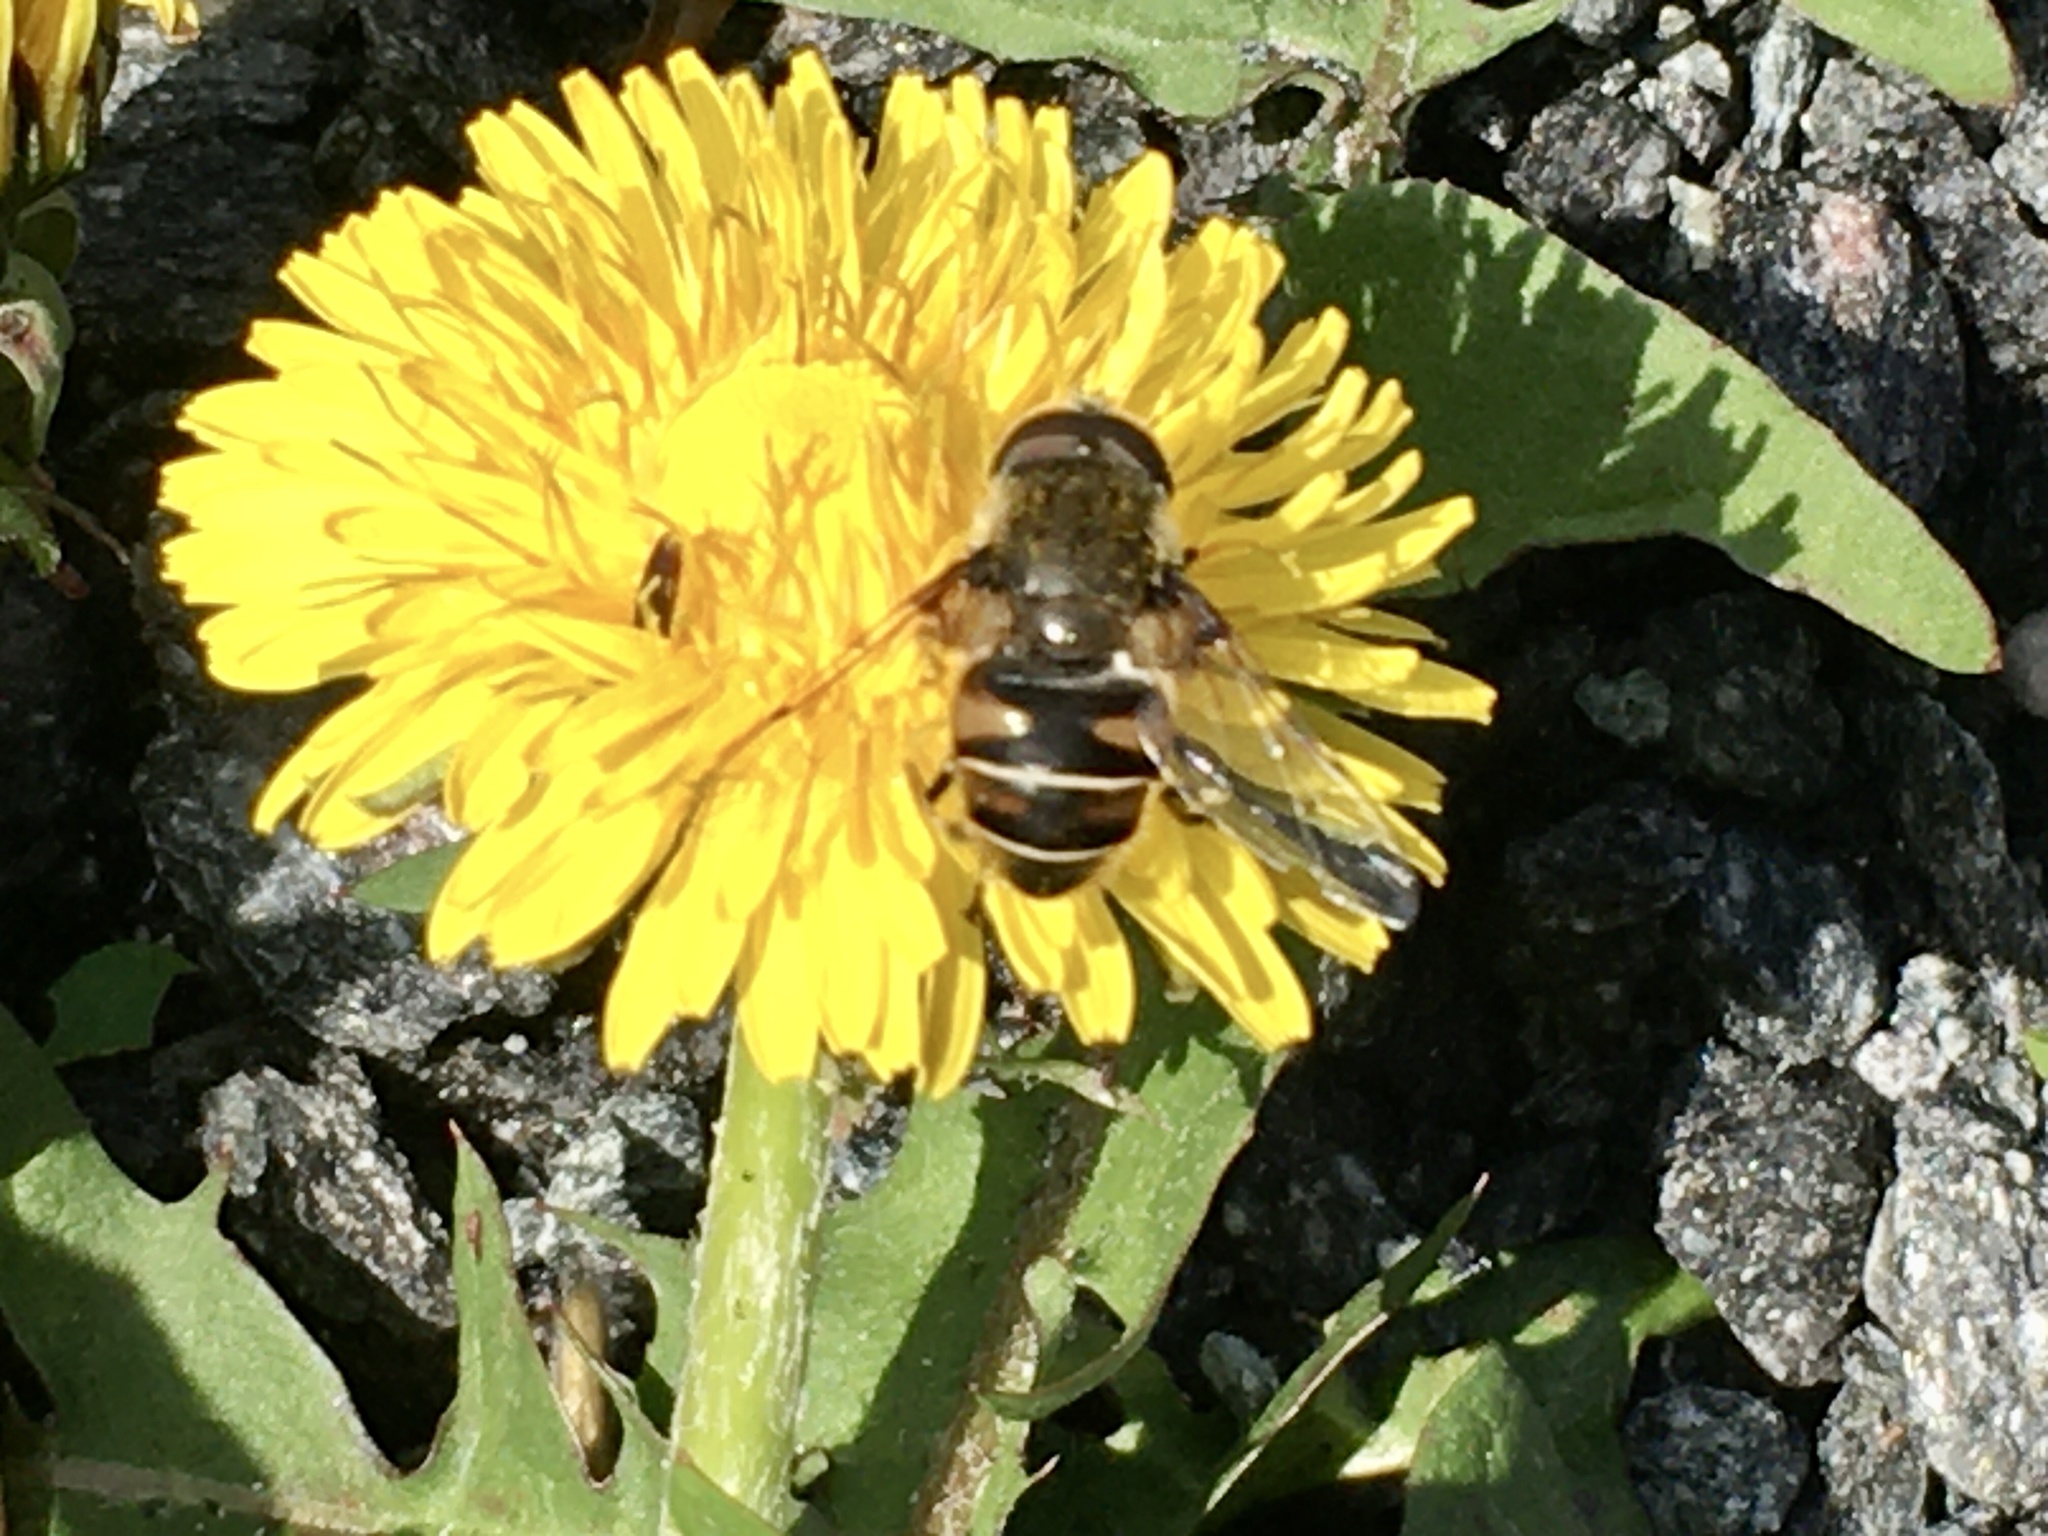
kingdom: Animalia
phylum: Arthropoda
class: Insecta
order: Diptera
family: Syrphidae
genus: Eristalis
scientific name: Eristalis dimidiata
